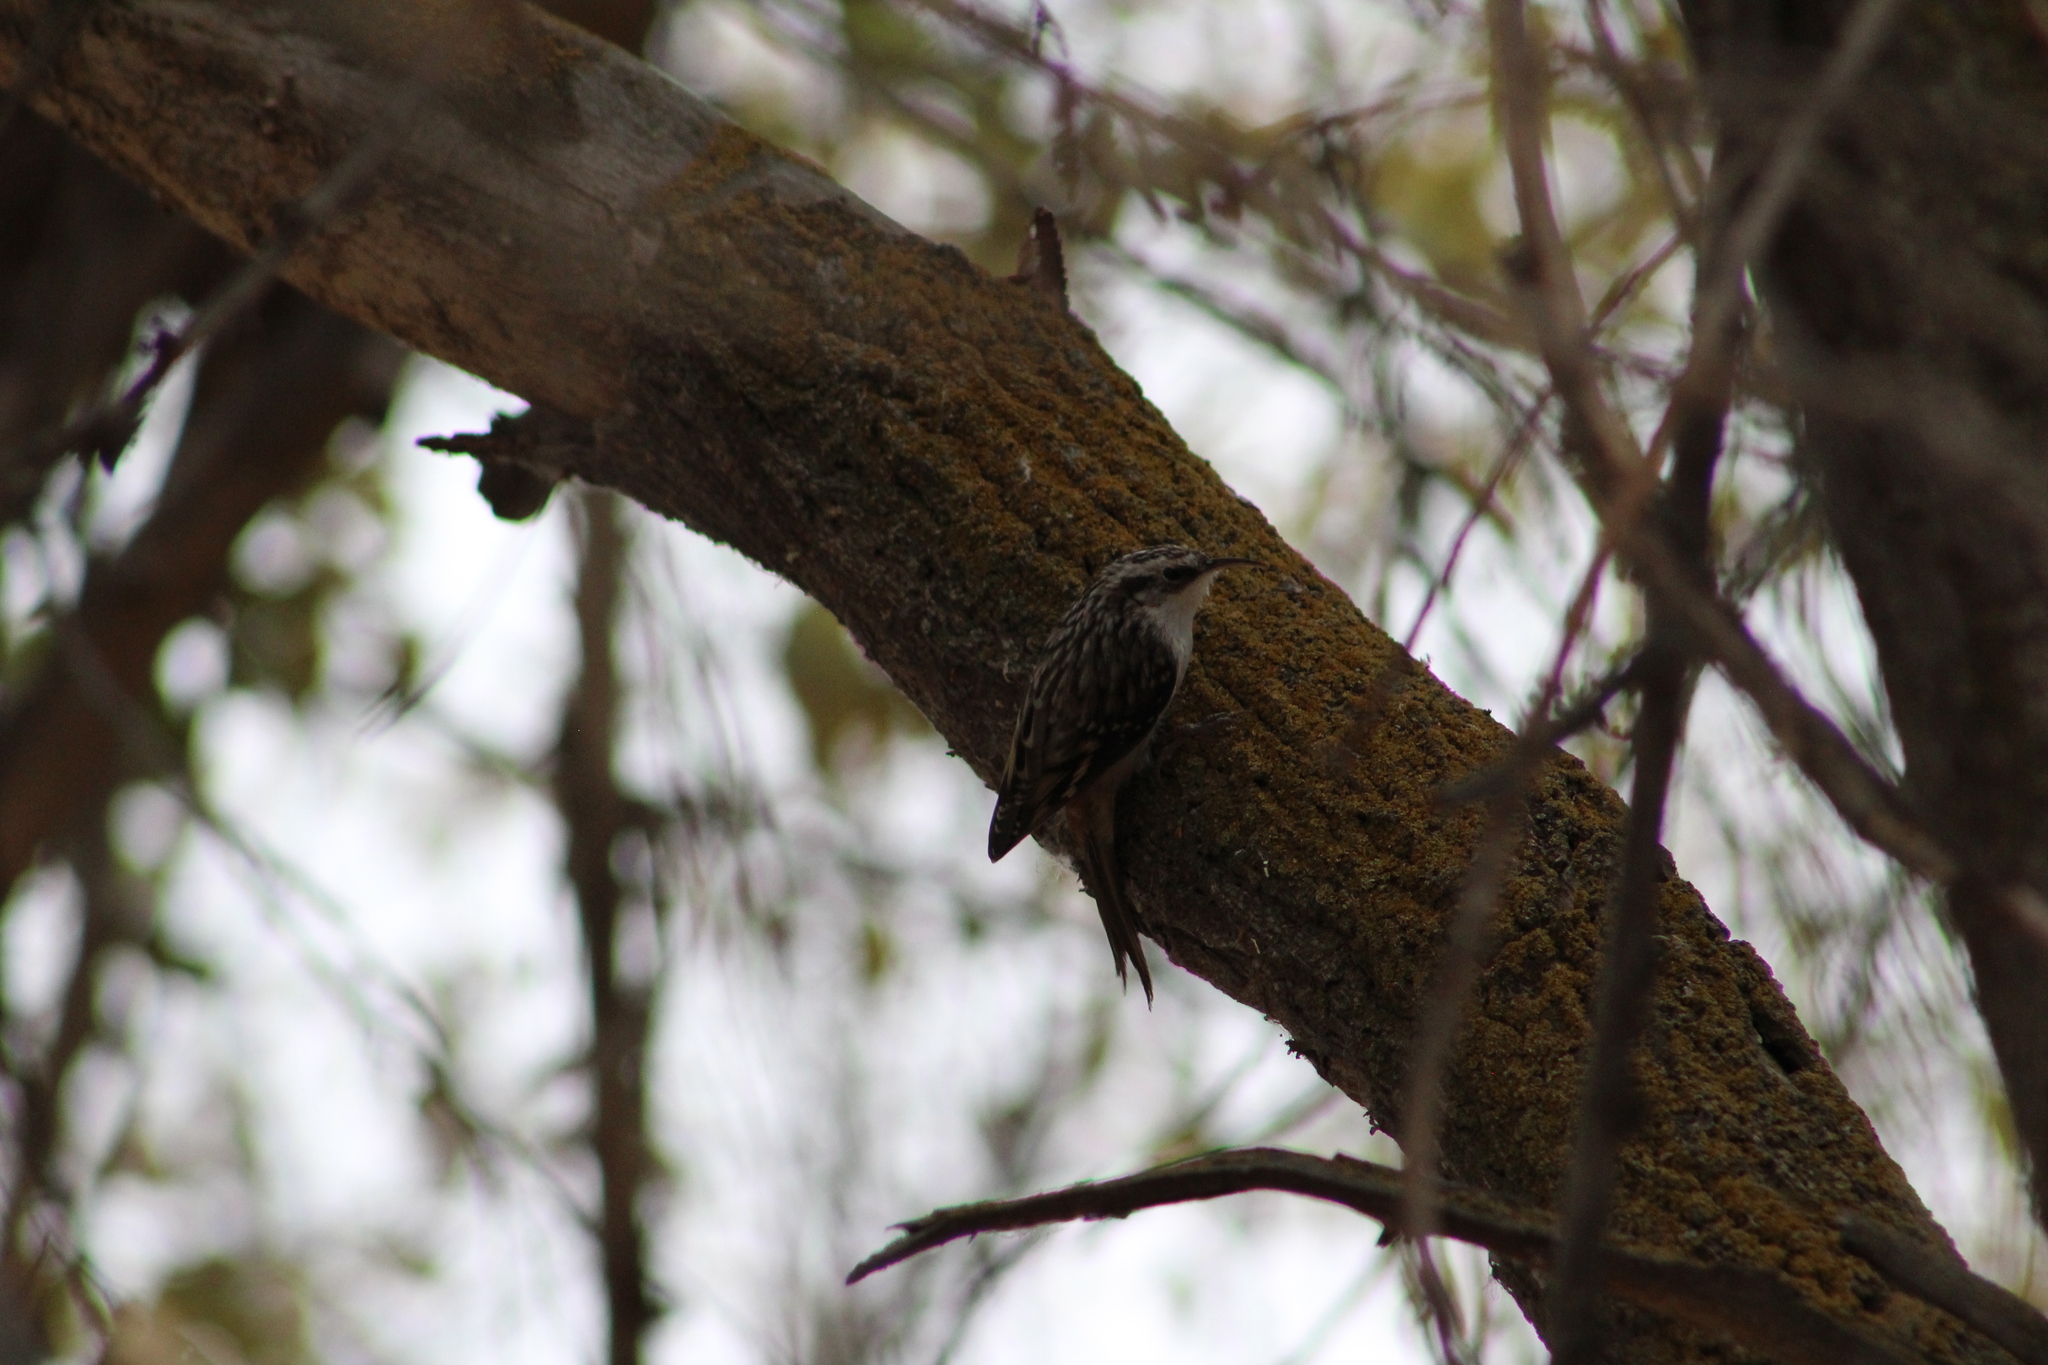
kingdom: Animalia
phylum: Chordata
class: Aves
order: Passeriformes
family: Certhiidae
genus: Certhia
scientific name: Certhia americana
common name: Brown creeper
